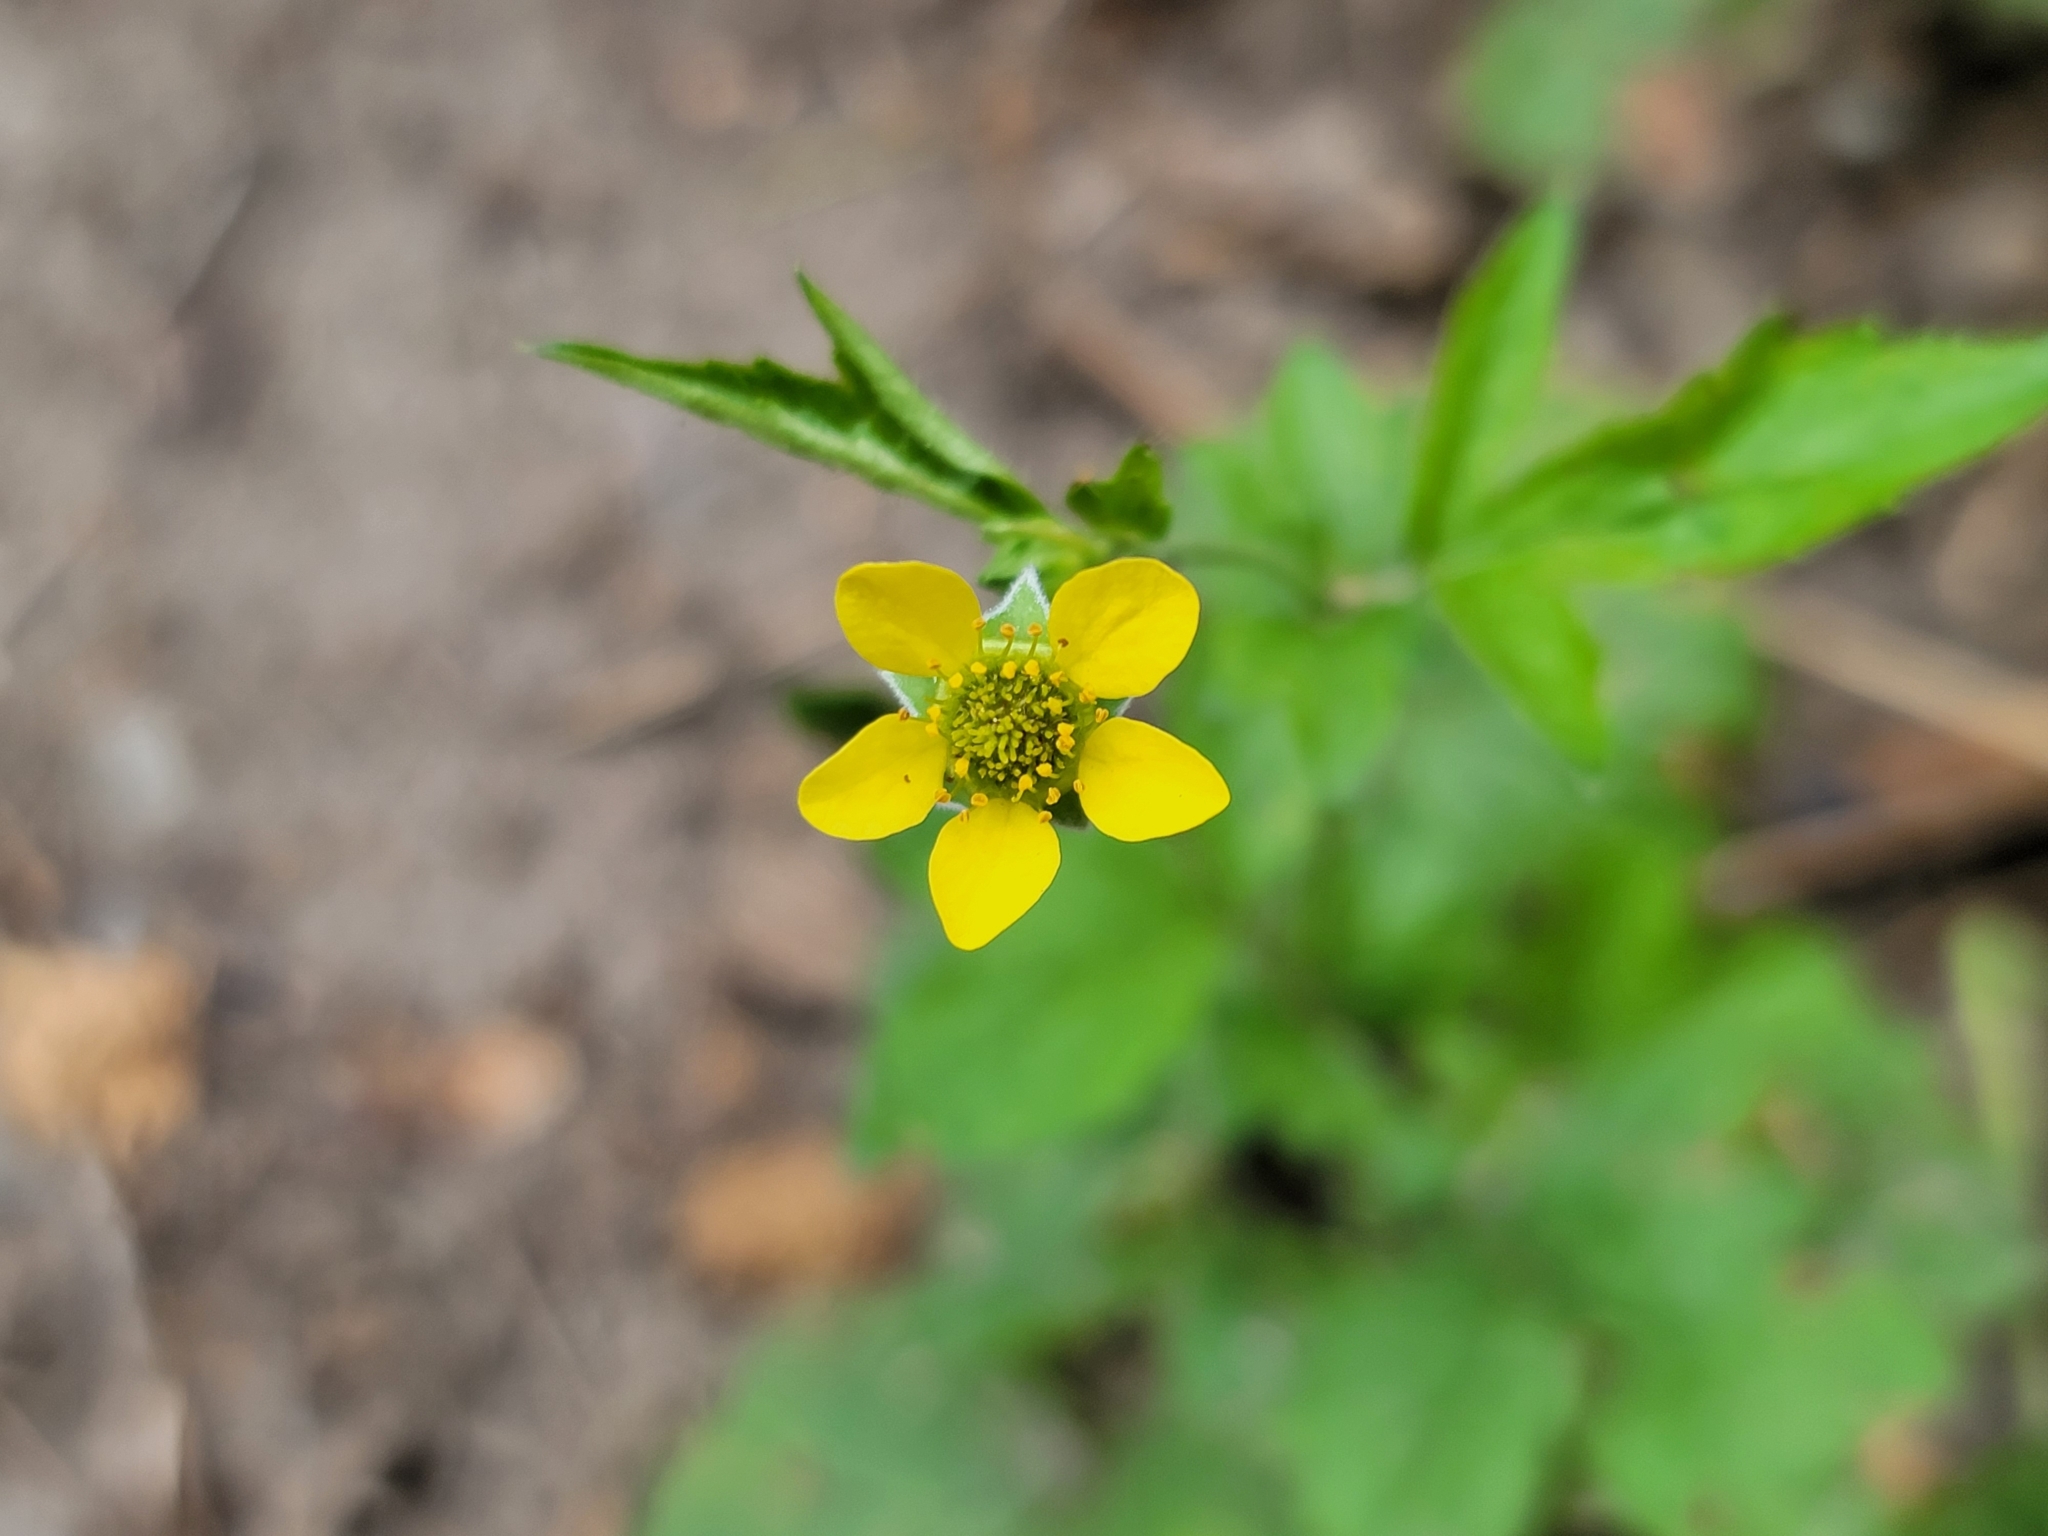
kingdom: Plantae
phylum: Tracheophyta
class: Magnoliopsida
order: Rosales
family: Rosaceae
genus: Geum
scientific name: Geum urbanum
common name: Wood avens
